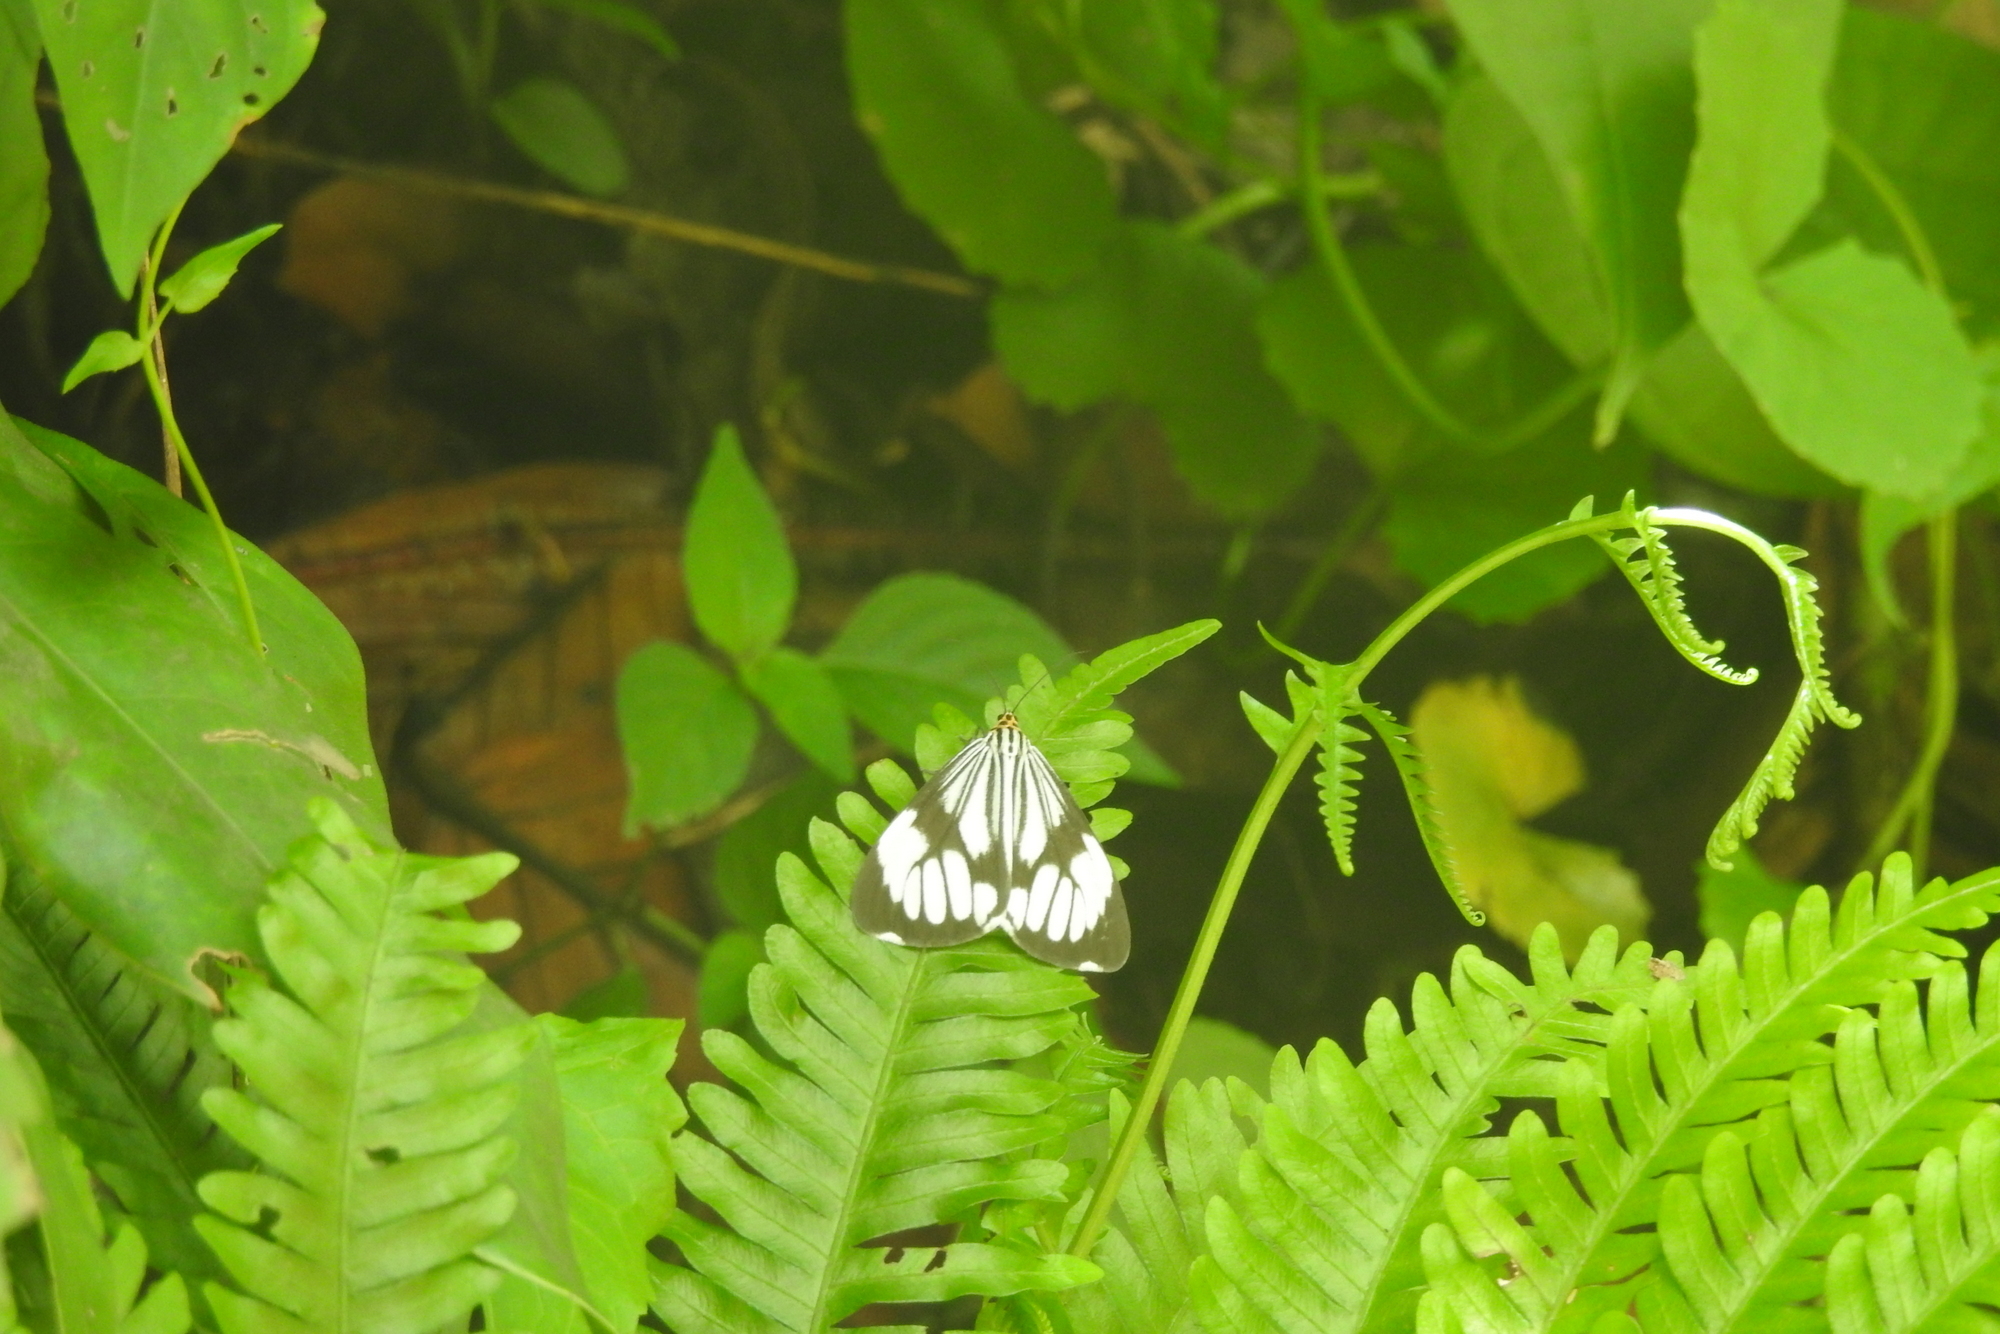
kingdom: Animalia
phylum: Arthropoda
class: Insecta
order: Lepidoptera
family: Erebidae
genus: Nyctemera
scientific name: Nyctemera coleta
